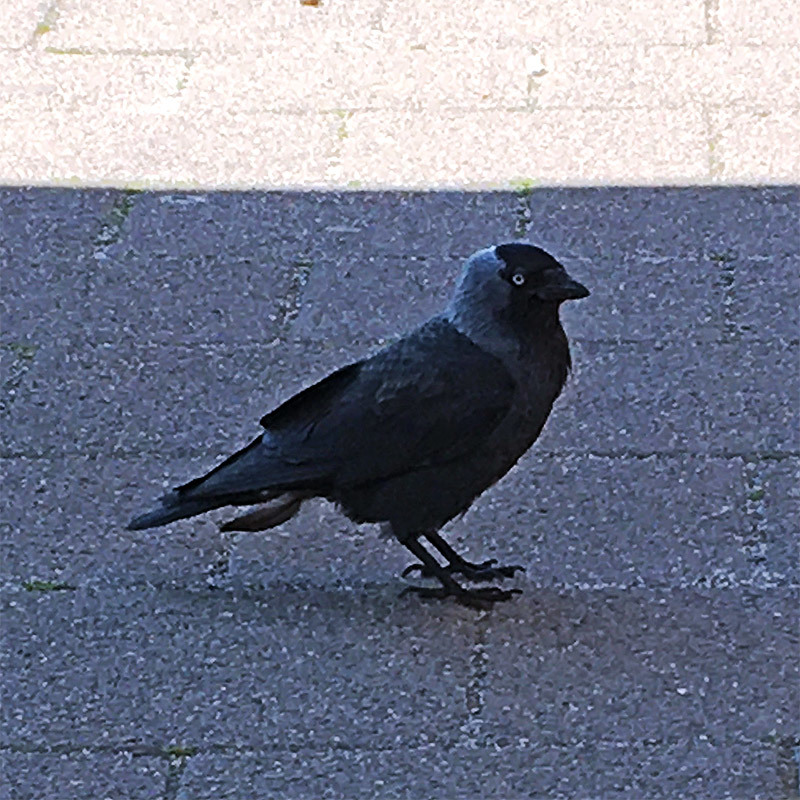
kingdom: Animalia
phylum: Chordata
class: Aves
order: Passeriformes
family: Corvidae
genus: Coloeus
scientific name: Coloeus monedula
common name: Western jackdaw
